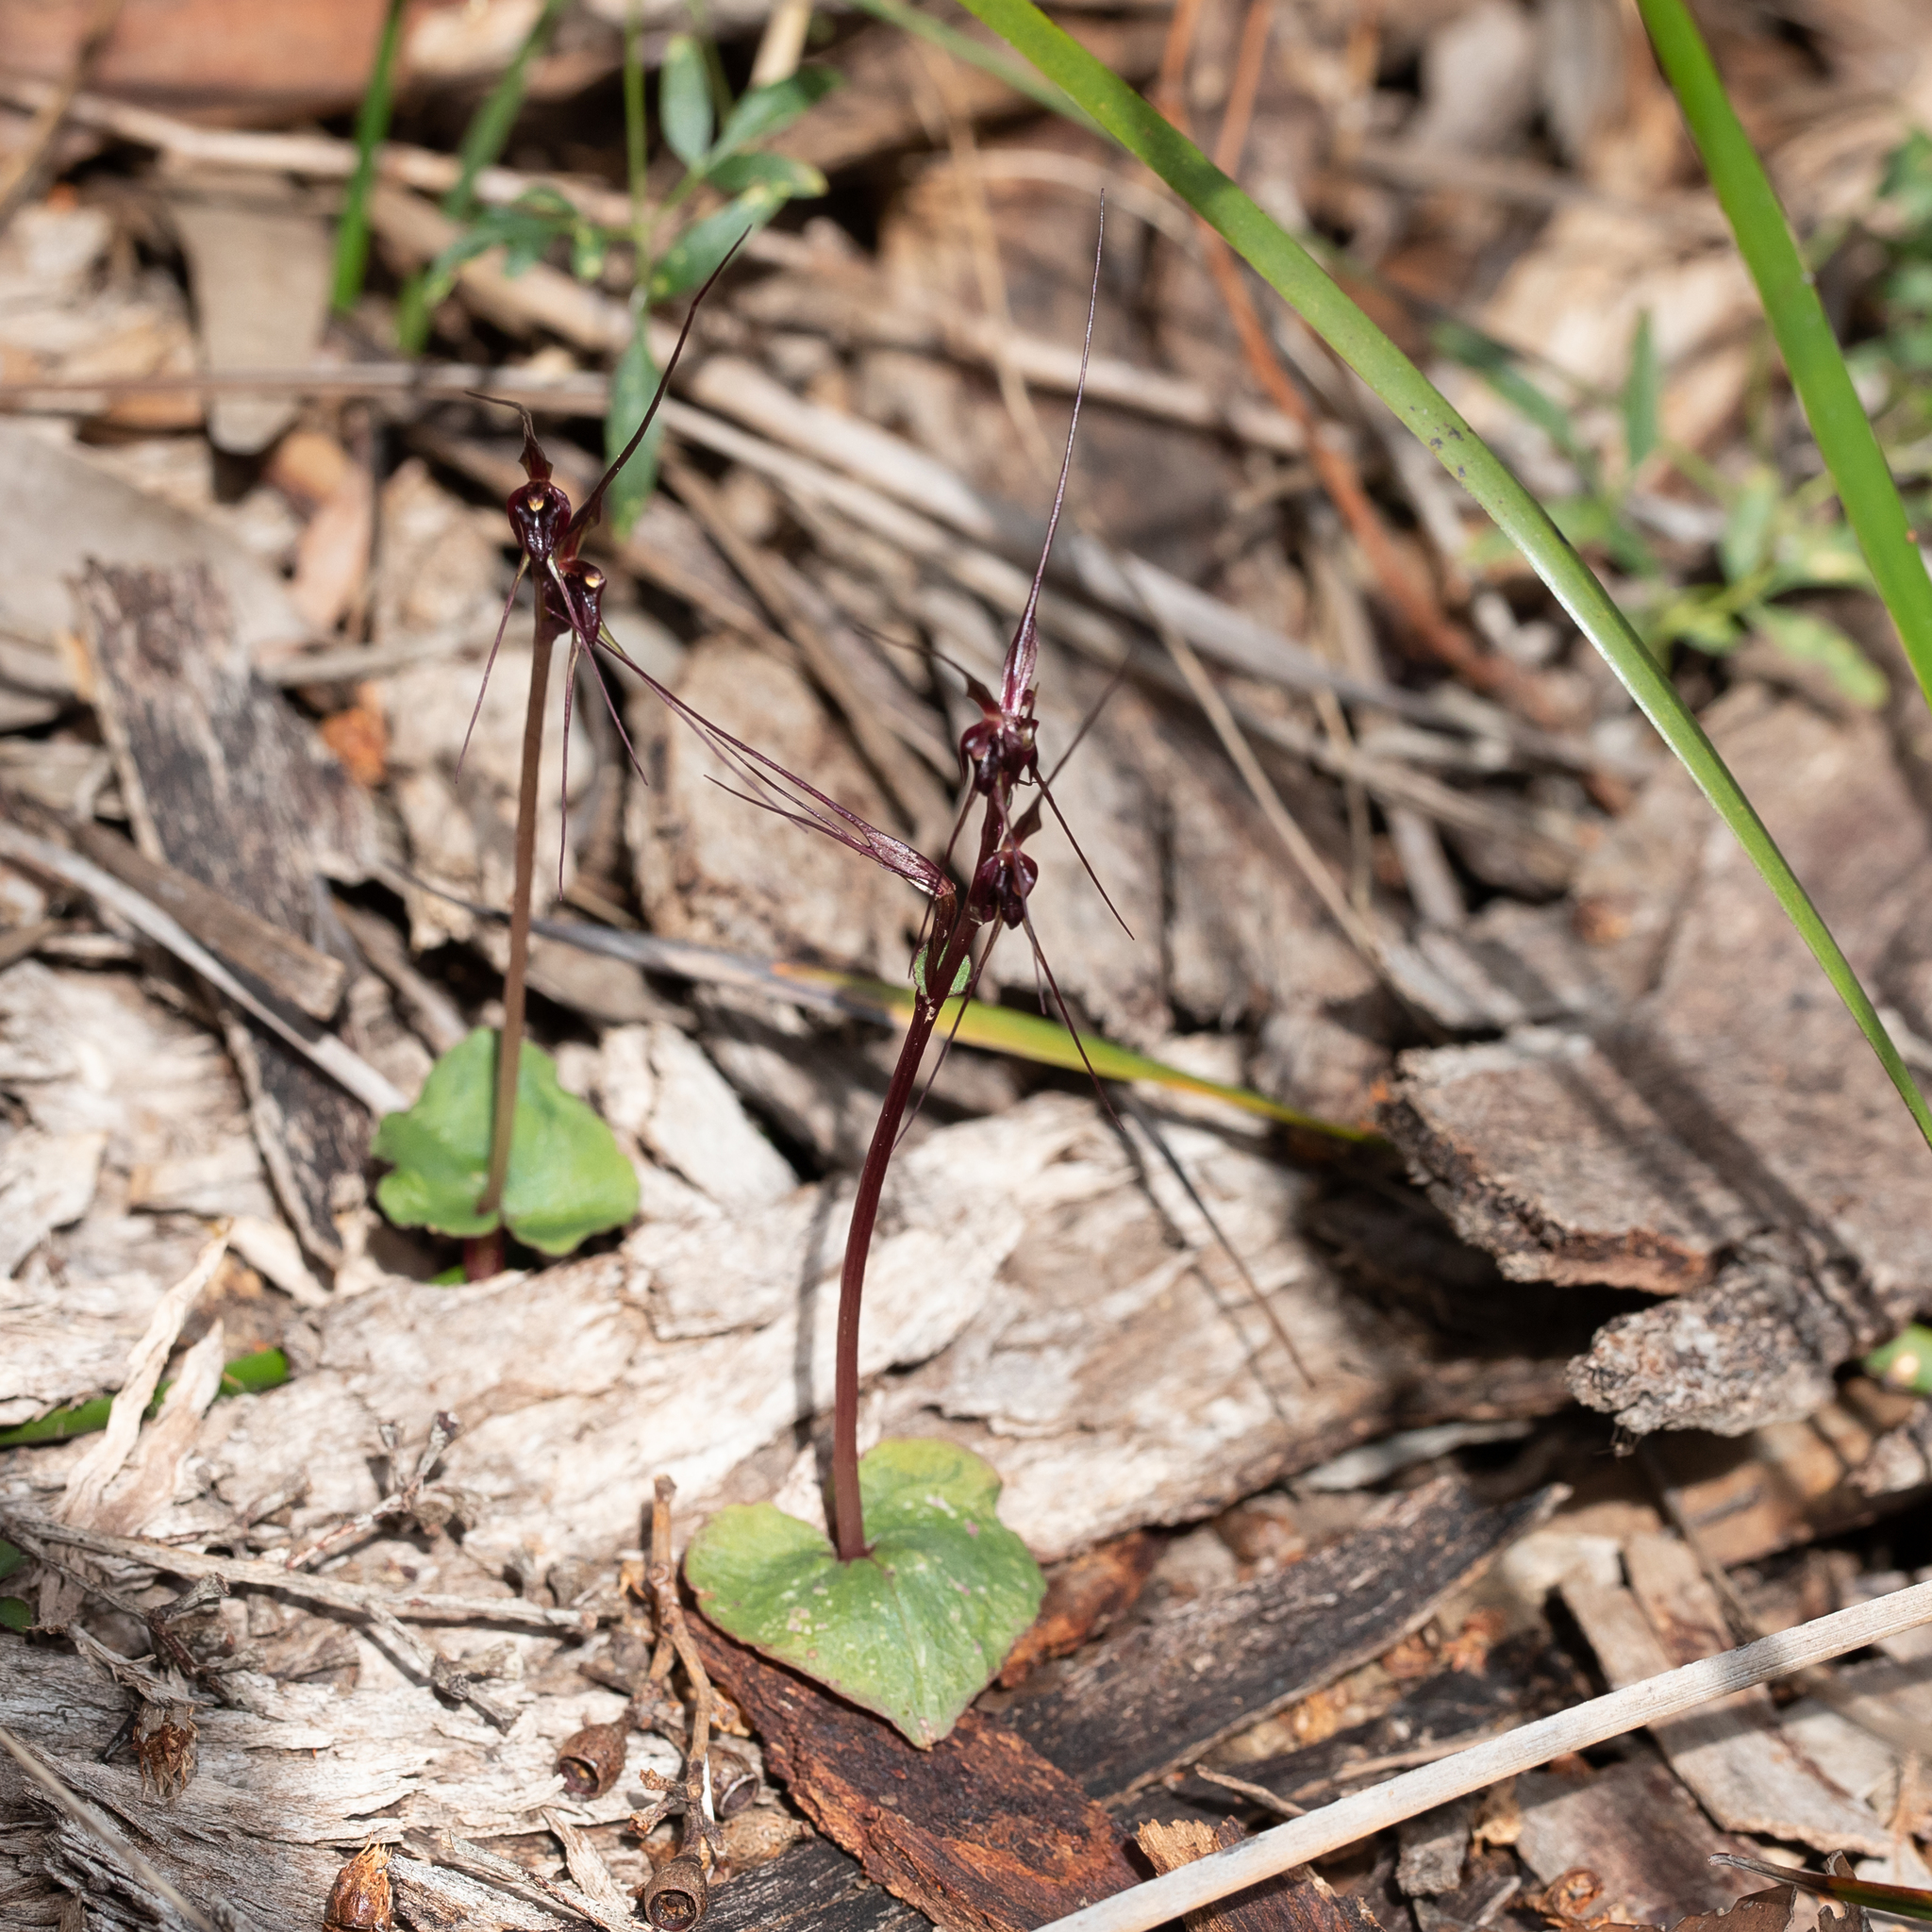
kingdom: Plantae
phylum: Tracheophyta
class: Liliopsida
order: Asparagales
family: Orchidaceae
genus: Acianthus
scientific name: Acianthus caudatus
